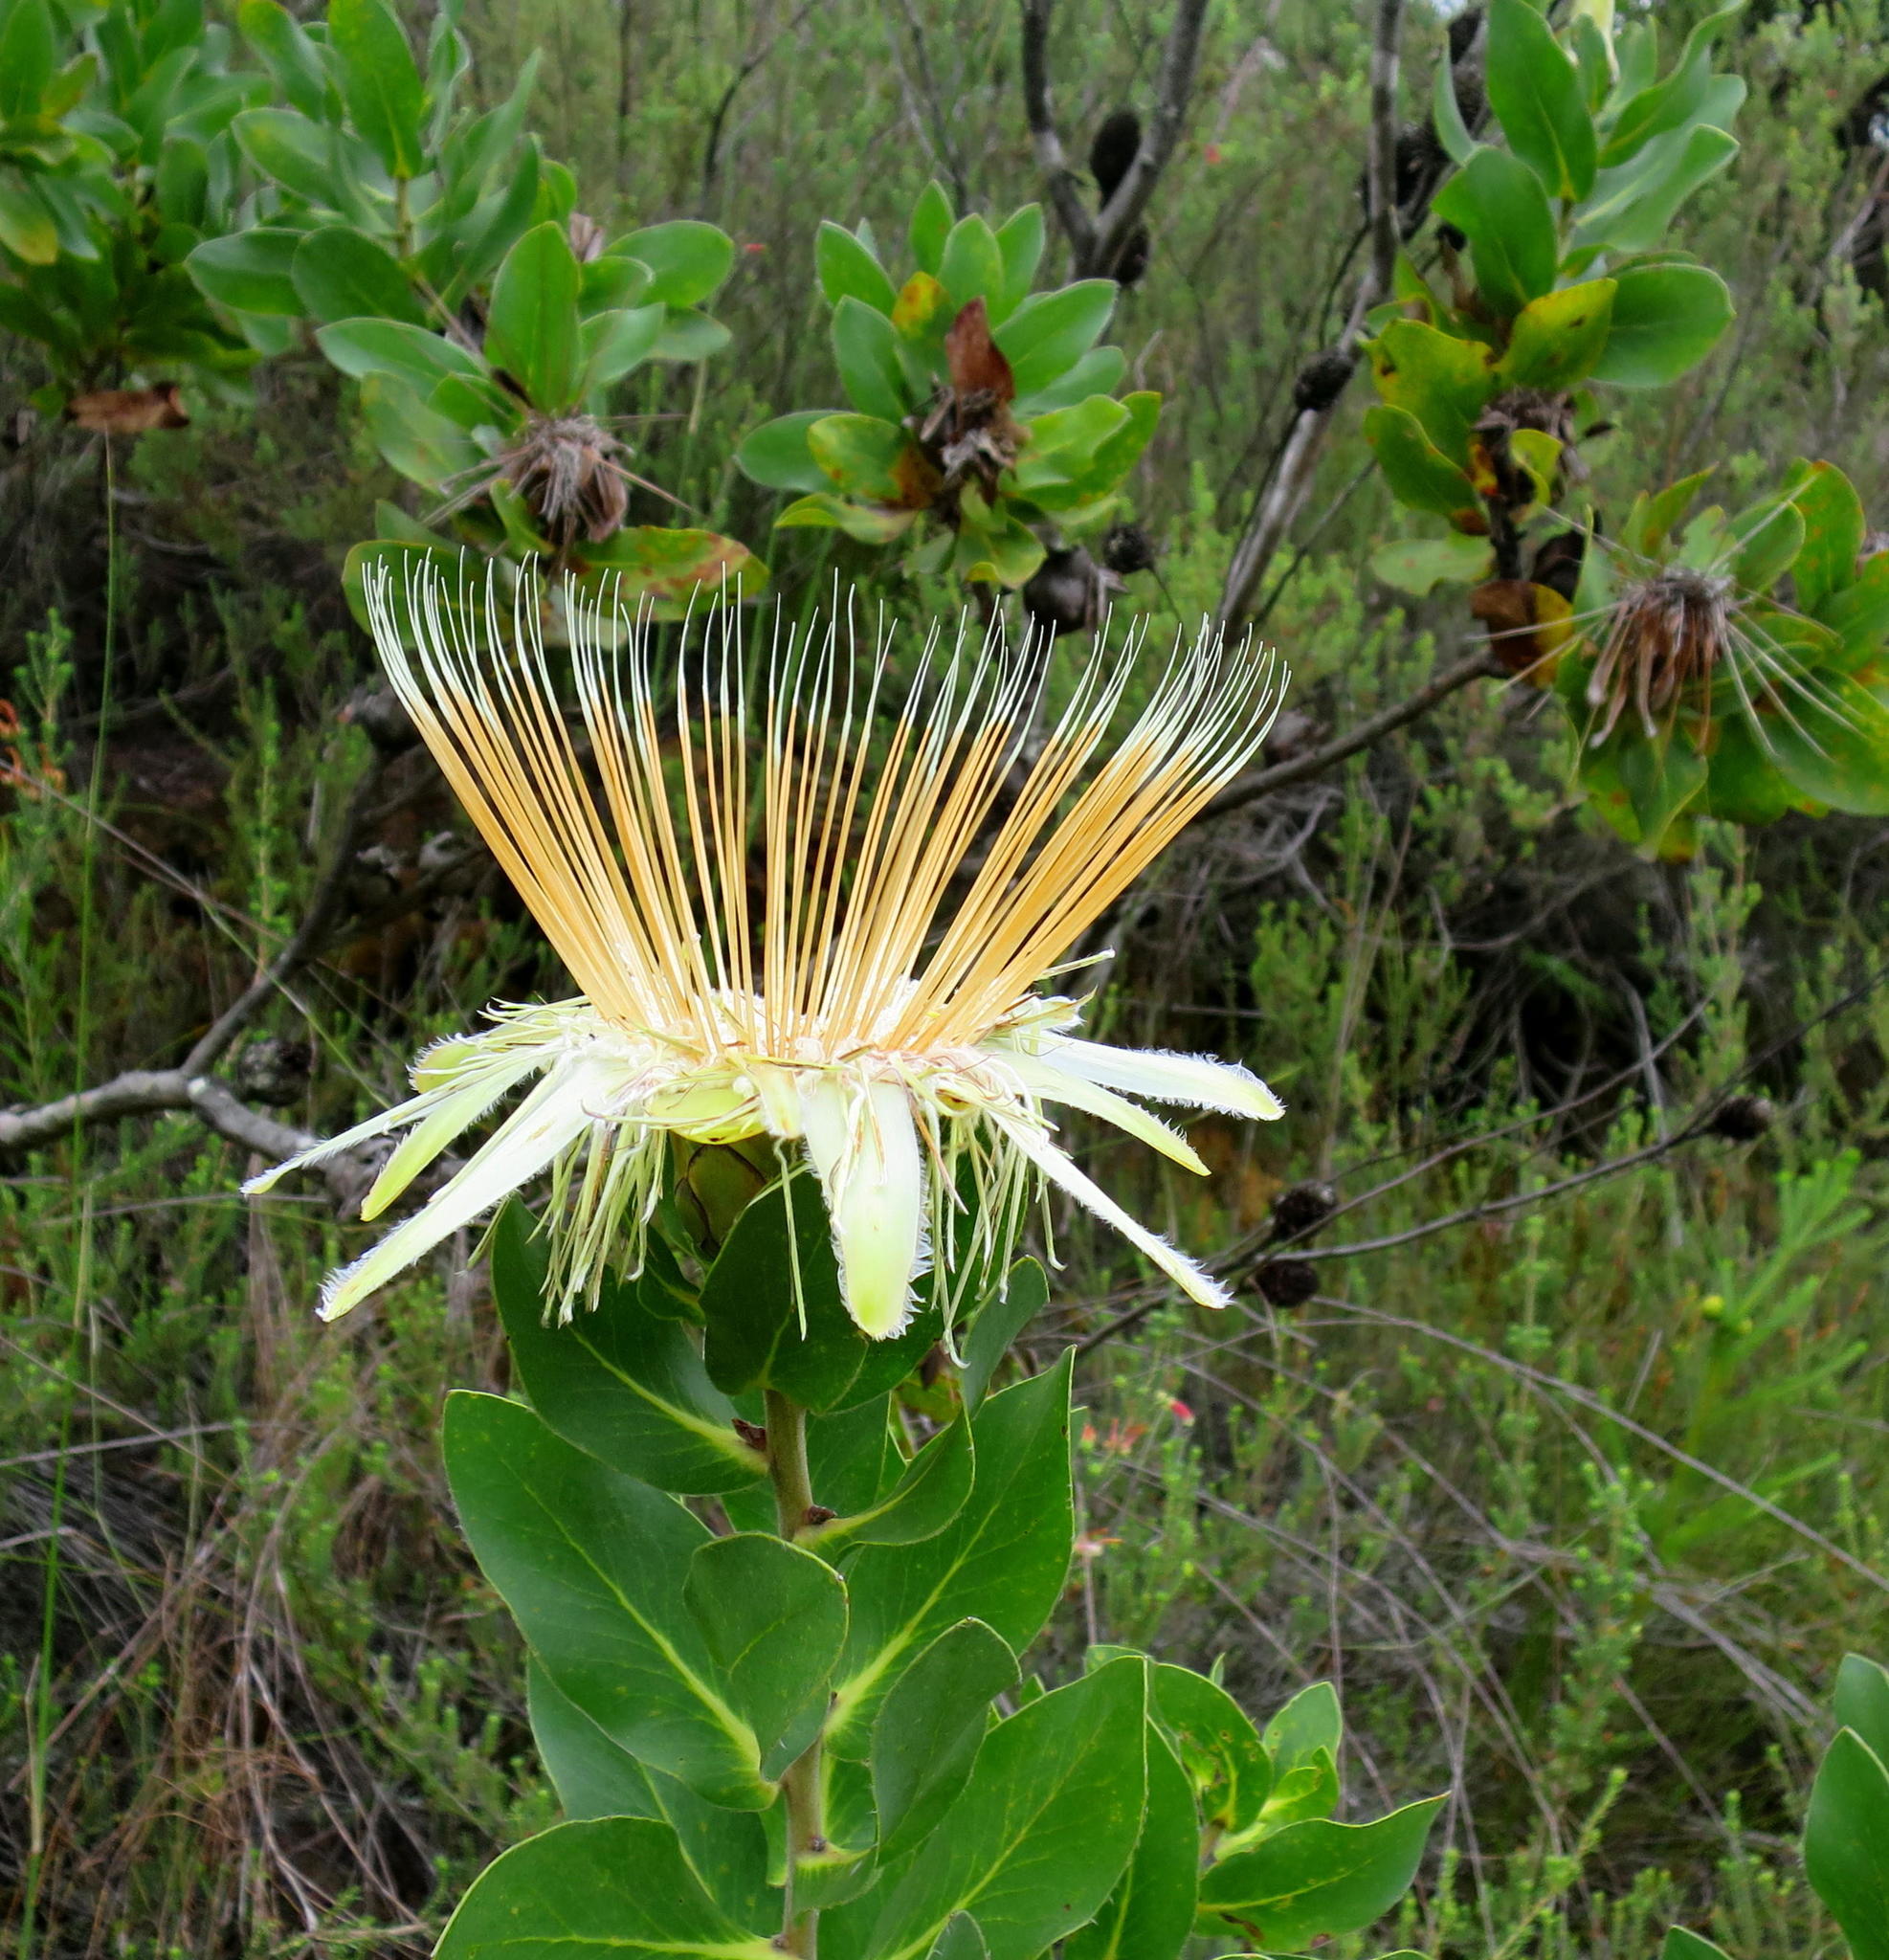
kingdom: Plantae
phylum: Tracheophyta
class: Magnoliopsida
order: Proteales
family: Proteaceae
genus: Protea
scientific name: Protea aurea
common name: Shuttlecock sugarbush
